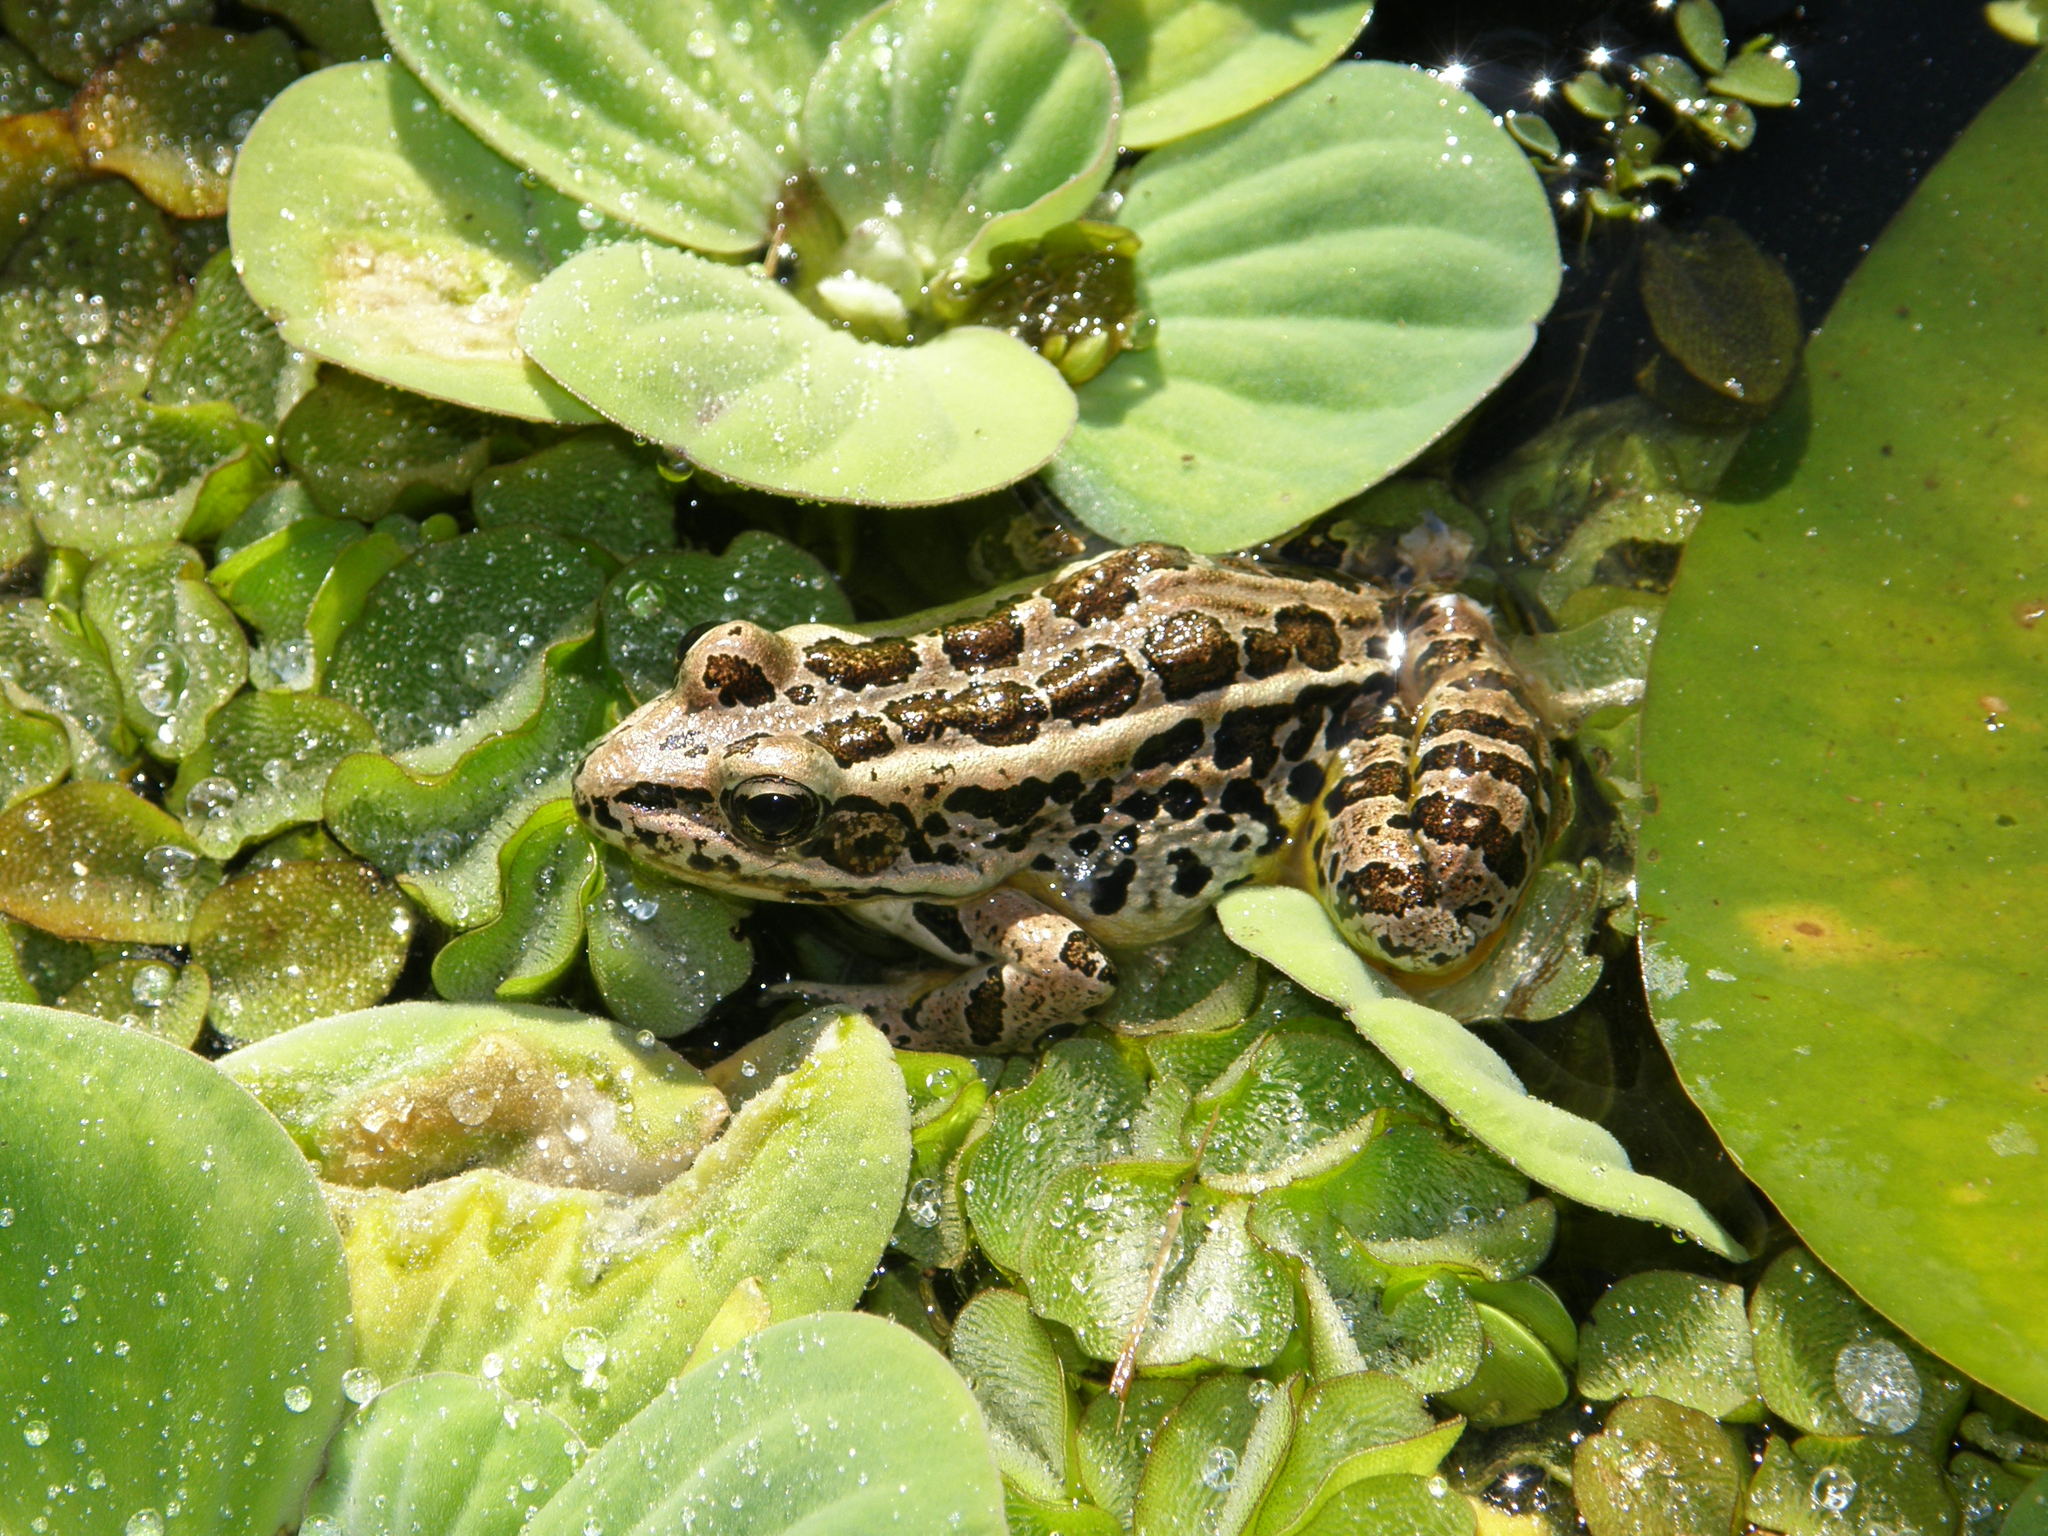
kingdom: Animalia
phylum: Chordata
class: Amphibia
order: Anura
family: Ranidae
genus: Lithobates
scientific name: Lithobates palustris
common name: Pickerel frog
